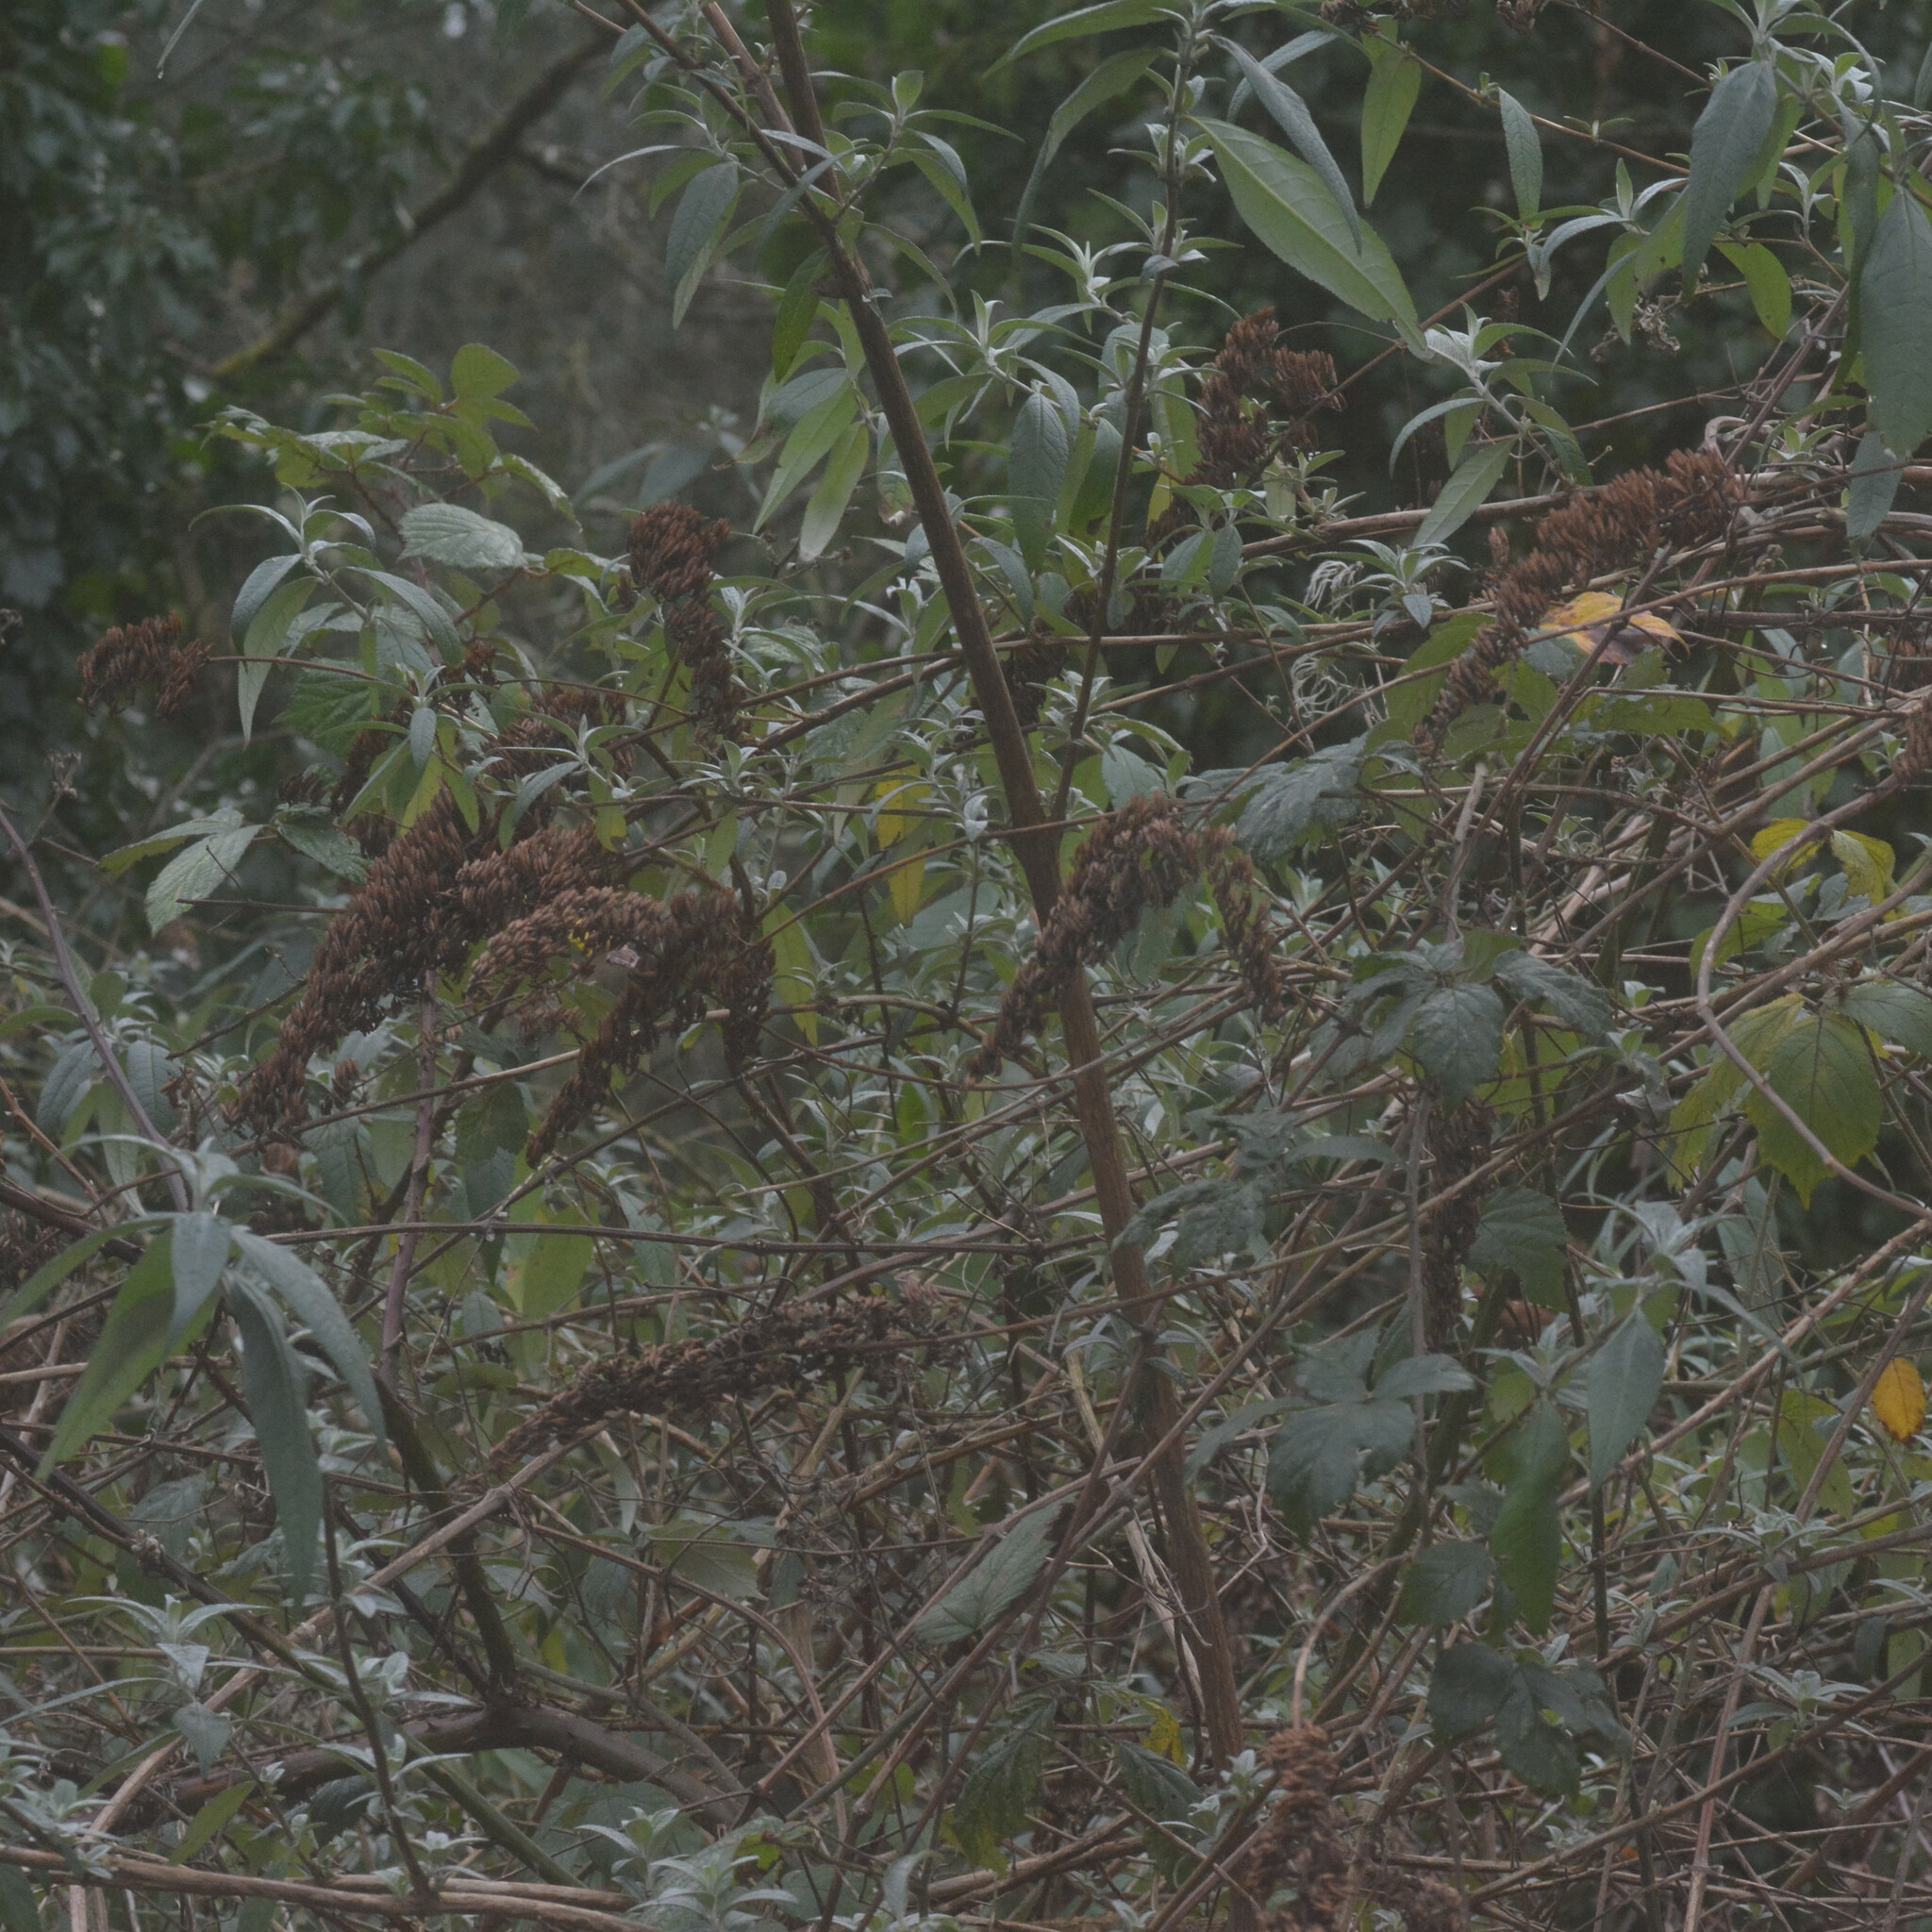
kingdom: Plantae
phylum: Tracheophyta
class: Magnoliopsida
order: Lamiales
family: Scrophulariaceae
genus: Buddleja
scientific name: Buddleja davidii
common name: Butterfly-bush
